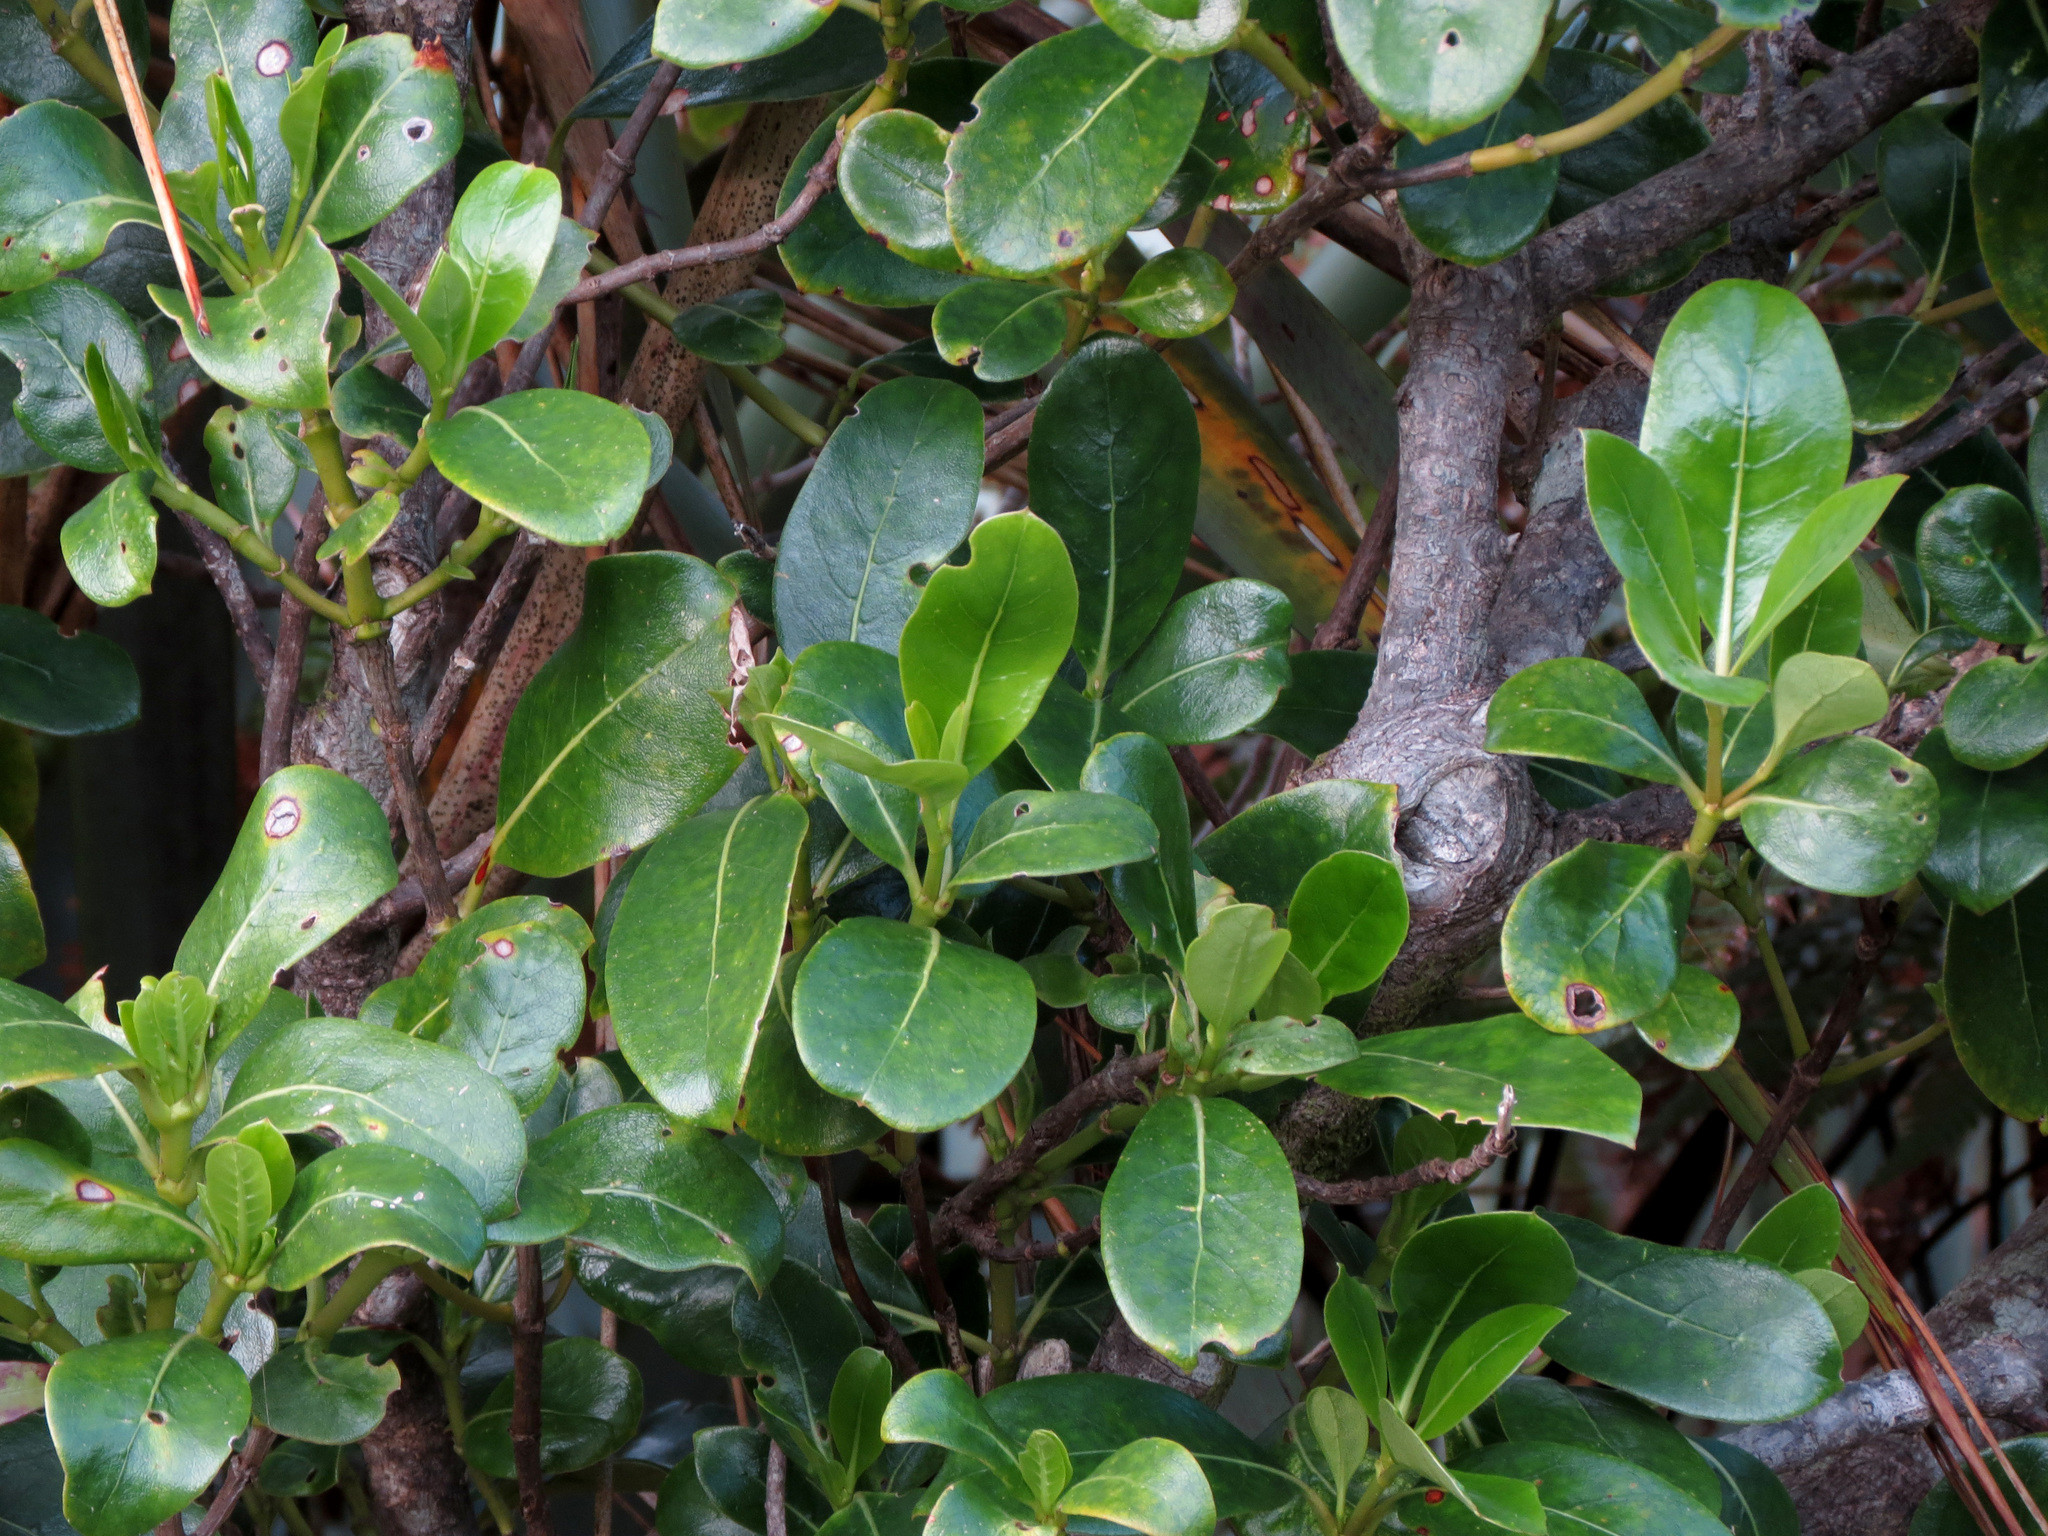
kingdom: Plantae
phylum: Tracheophyta
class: Magnoliopsida
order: Gentianales
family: Rubiaceae
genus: Coprosma
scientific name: Coprosma lucida
